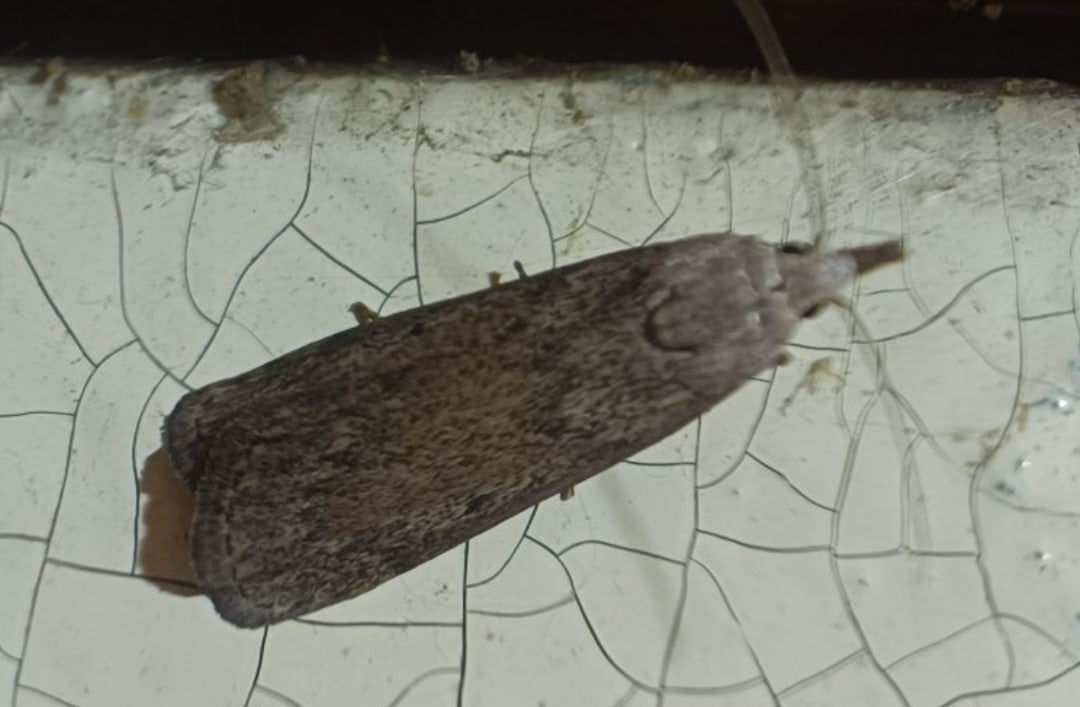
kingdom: Animalia
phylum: Arthropoda
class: Insecta
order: Lepidoptera
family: Pyralidae
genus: Aphomia
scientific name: Aphomia sociella
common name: Bee moth
